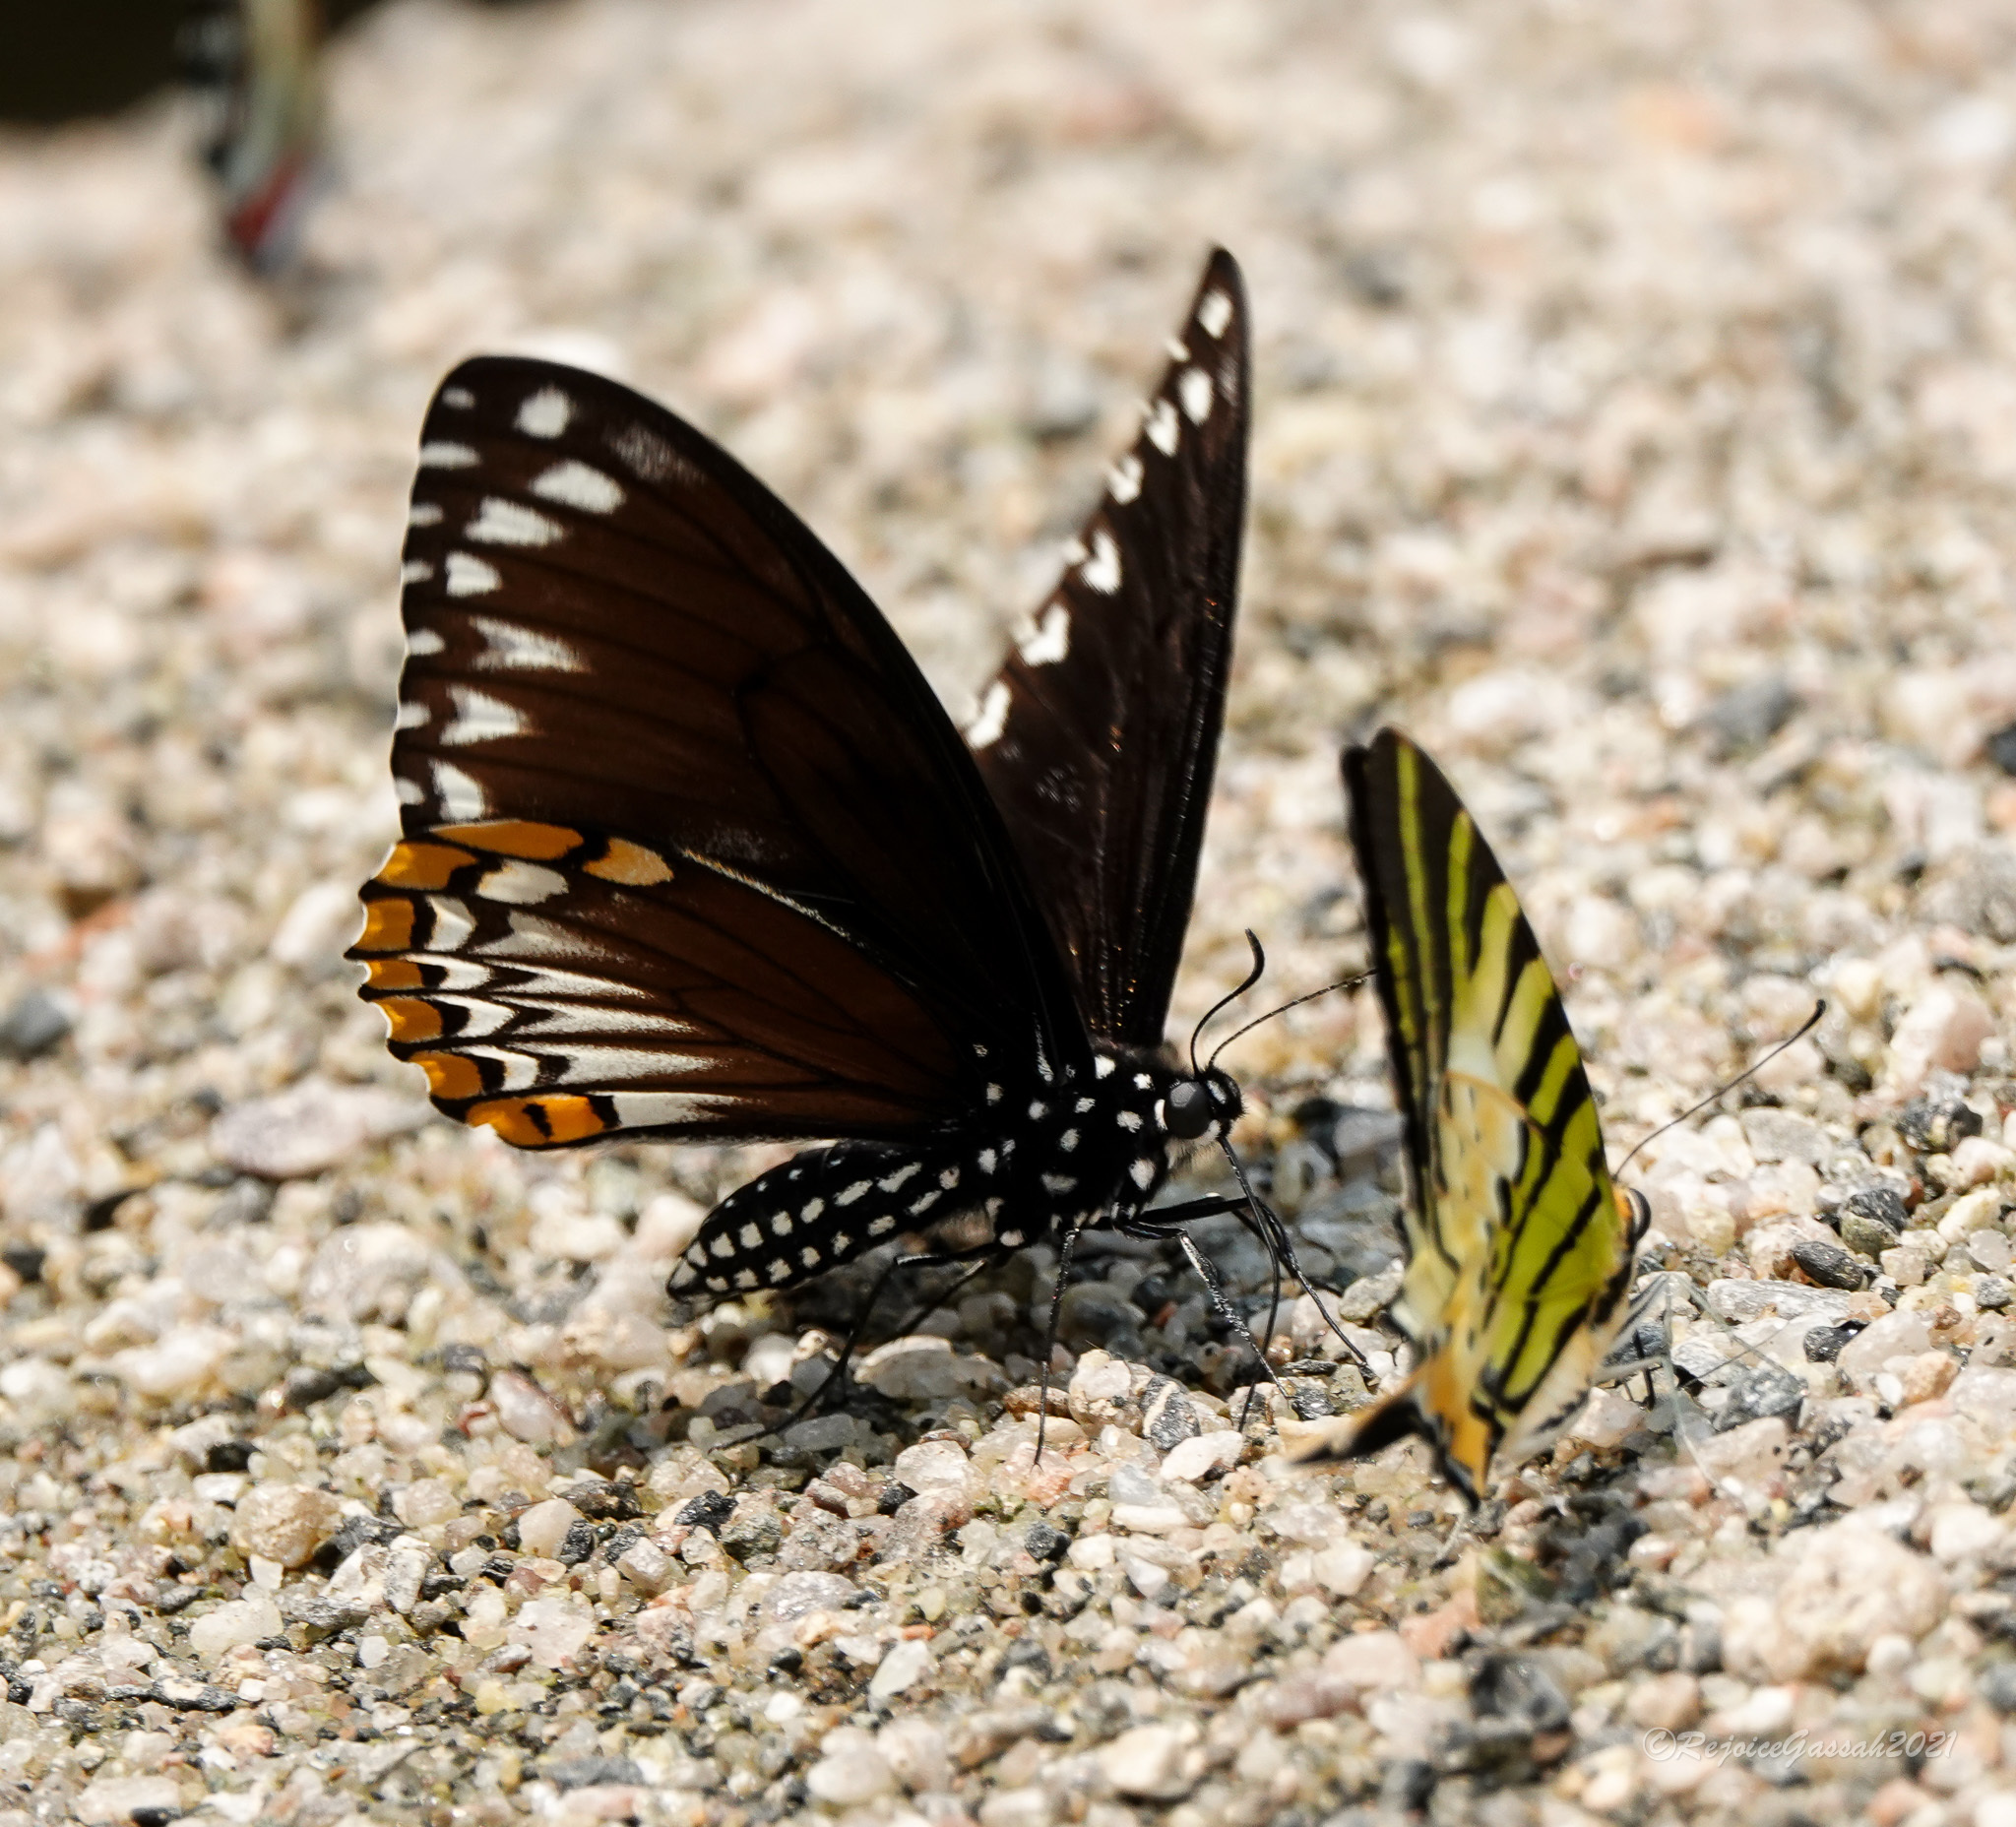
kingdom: Animalia
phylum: Arthropoda
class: Insecta
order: Lepidoptera
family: Papilionidae
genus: Chilasa
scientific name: Chilasa clytia
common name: Common mime
